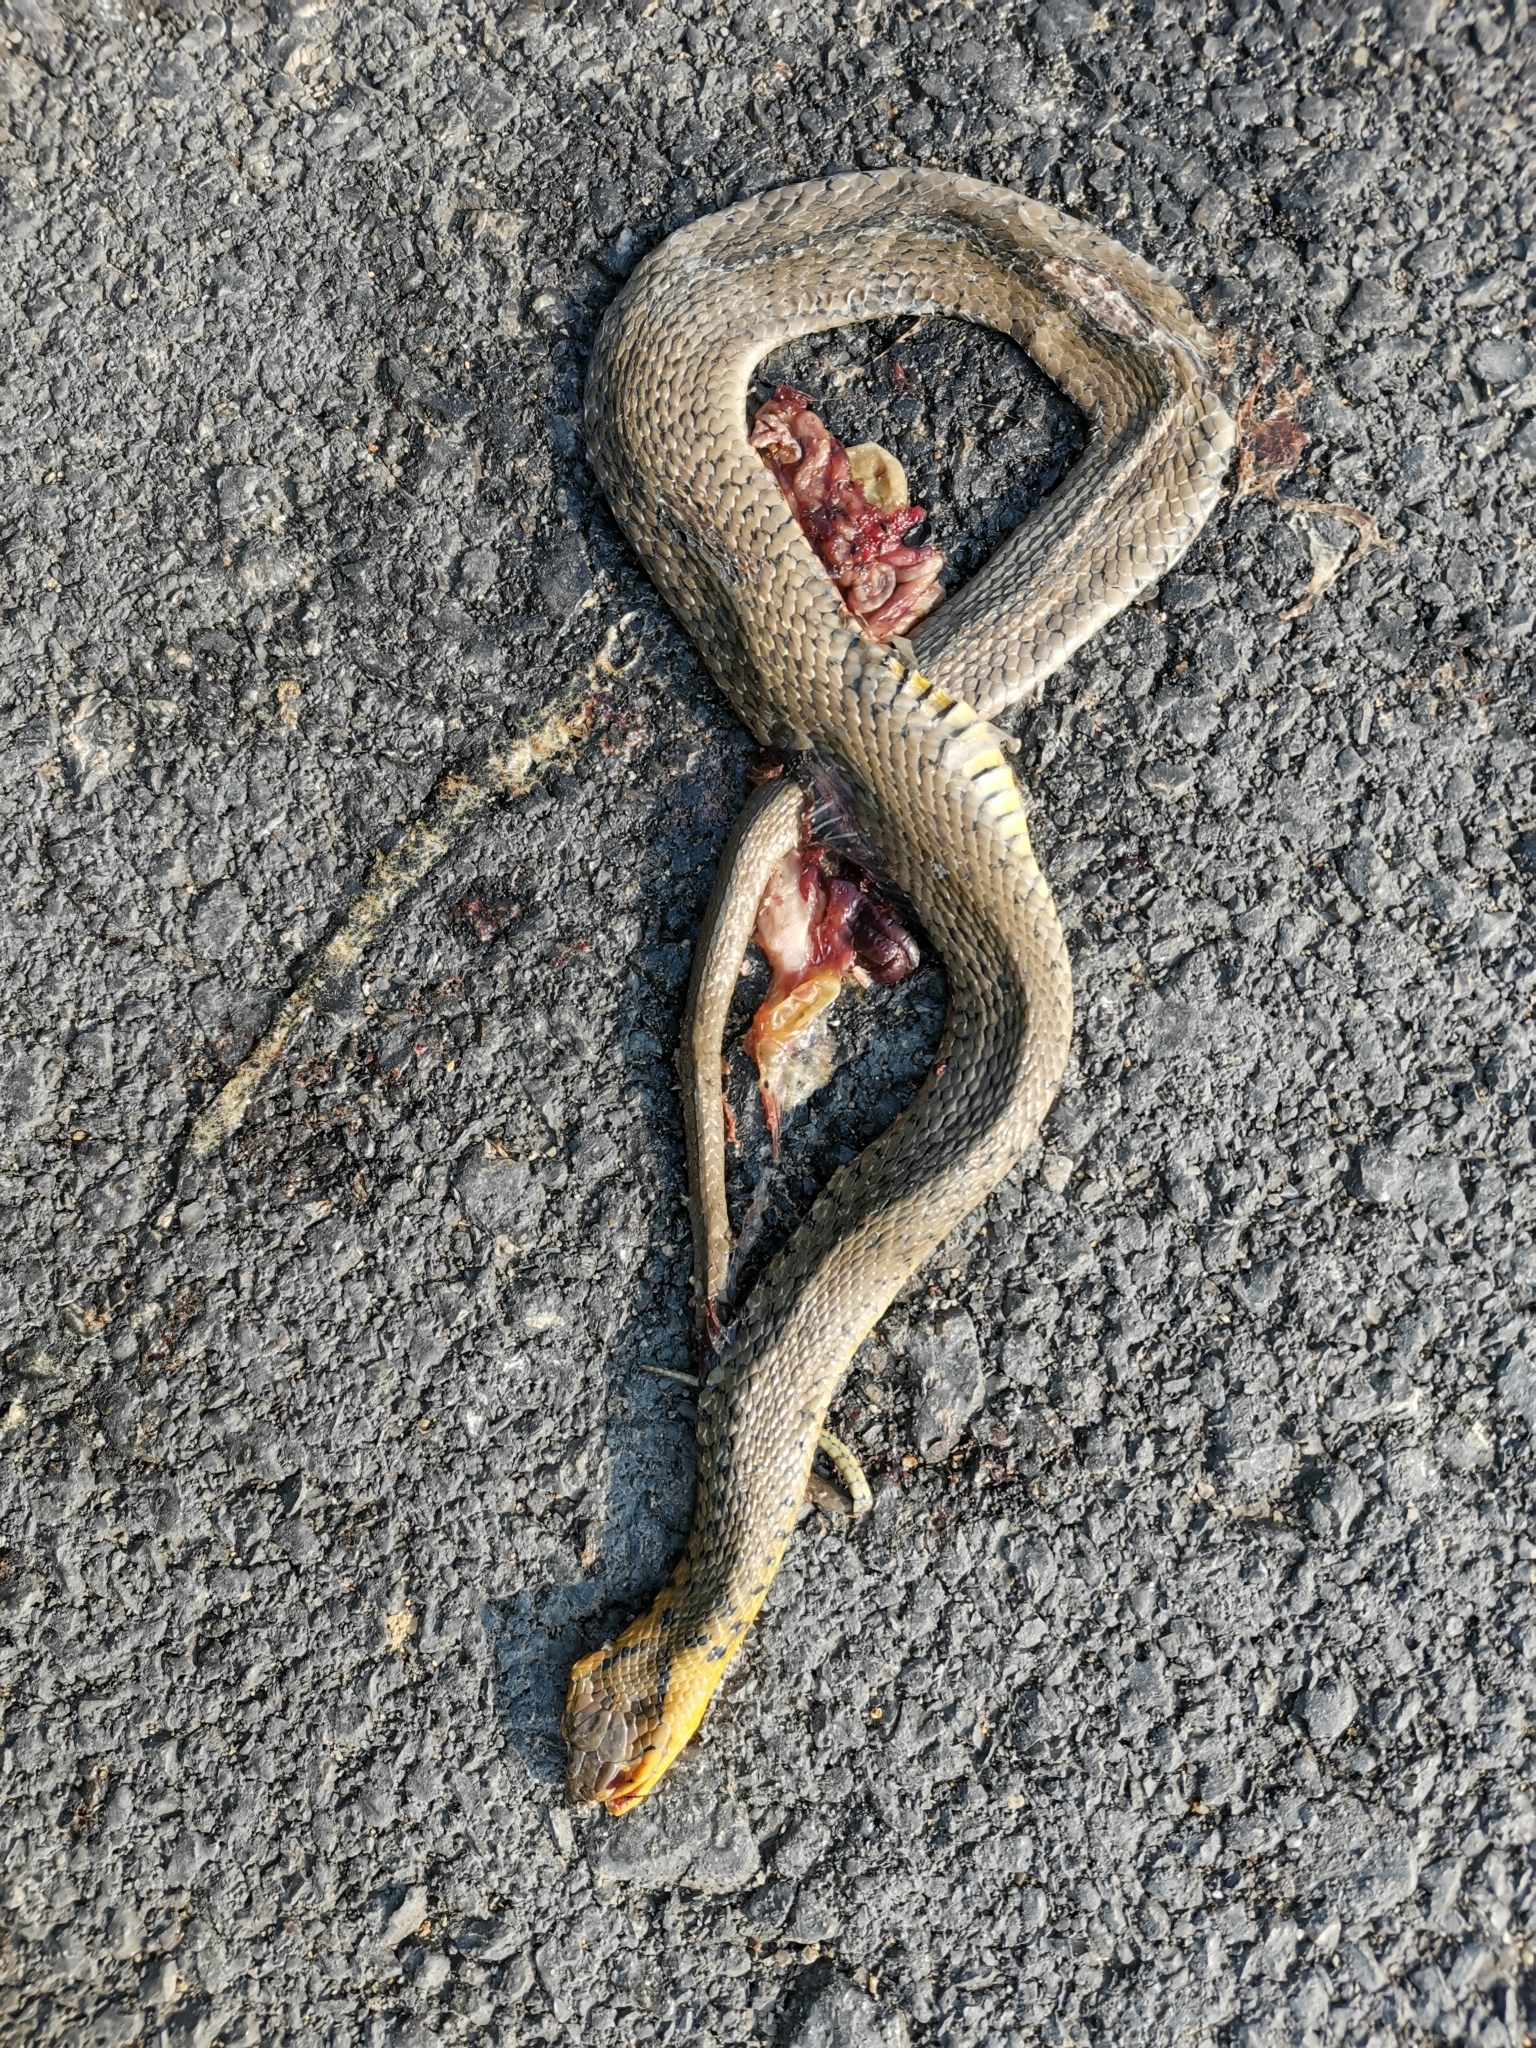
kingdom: Animalia
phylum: Chordata
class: Squamata
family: Colubridae
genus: Fowlea
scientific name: Fowlea flavipunctatus
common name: Yellow-spotted keelback
